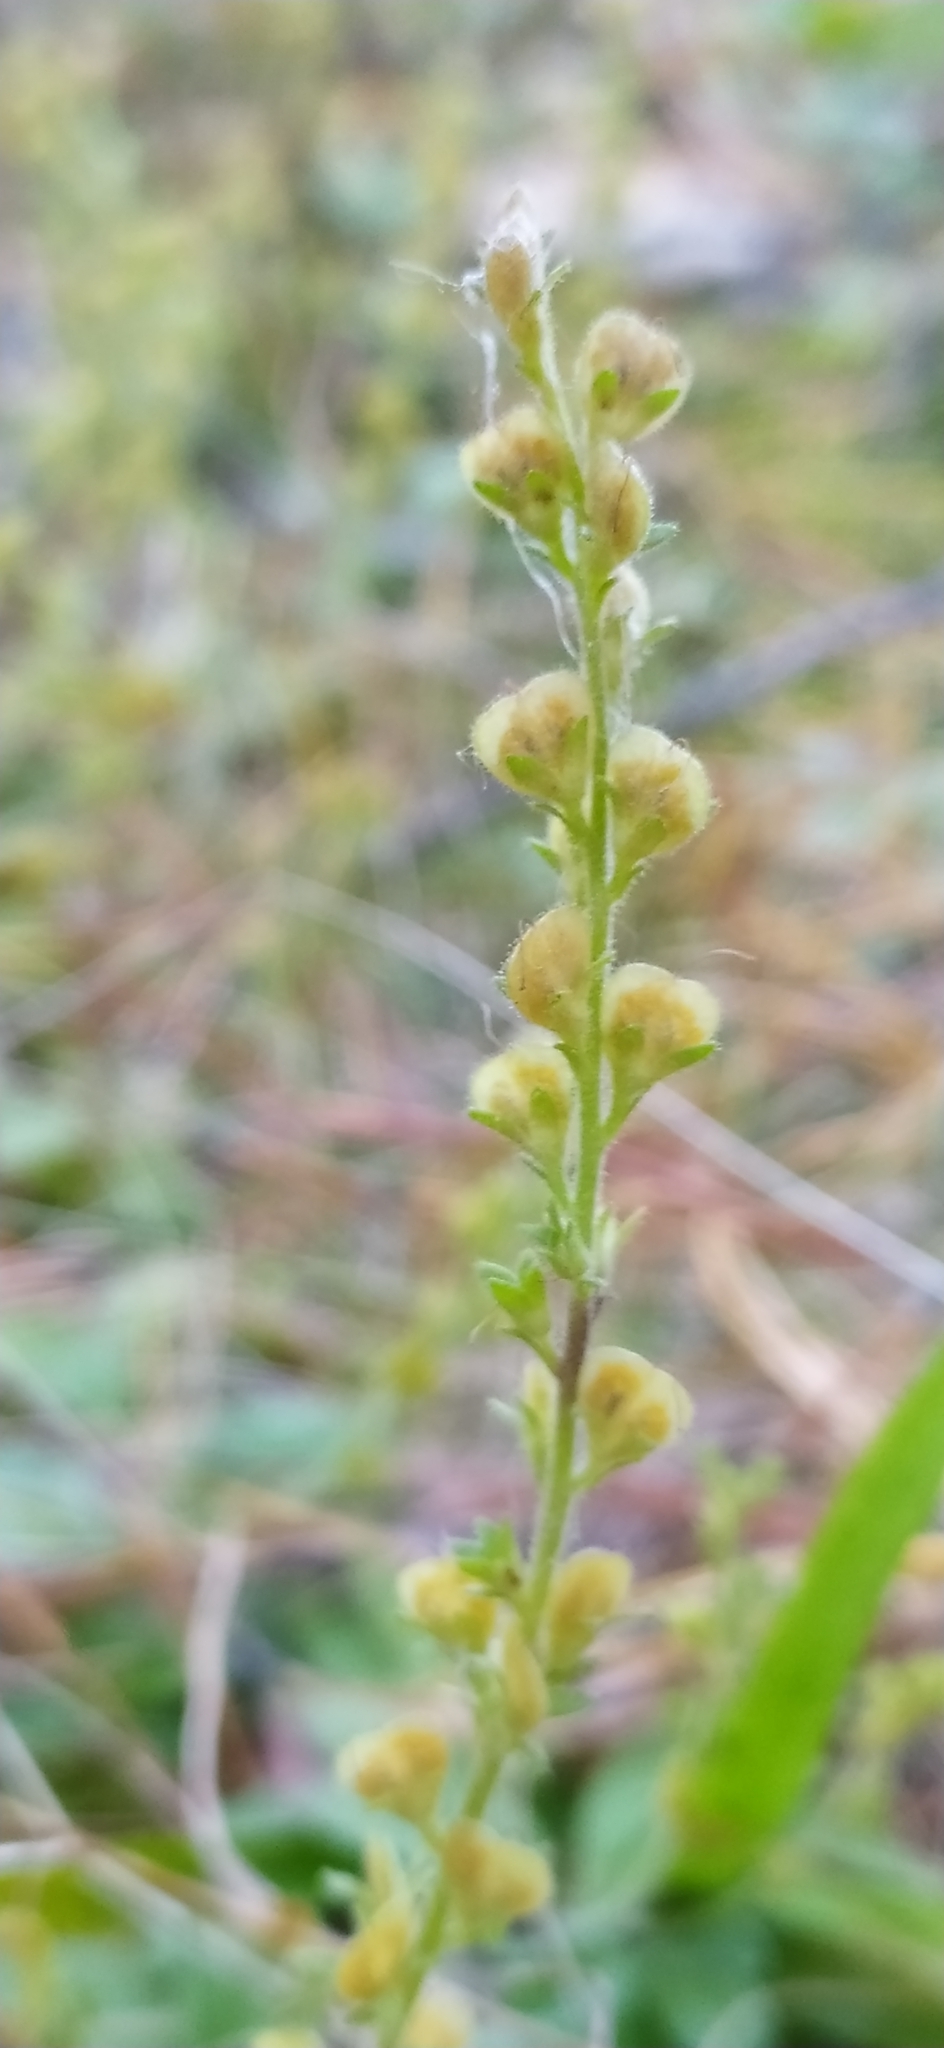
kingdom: Plantae
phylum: Tracheophyta
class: Magnoliopsida
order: Lamiales
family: Plantaginaceae
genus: Veronica
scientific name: Veronica officinalis
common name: Common speedwell
